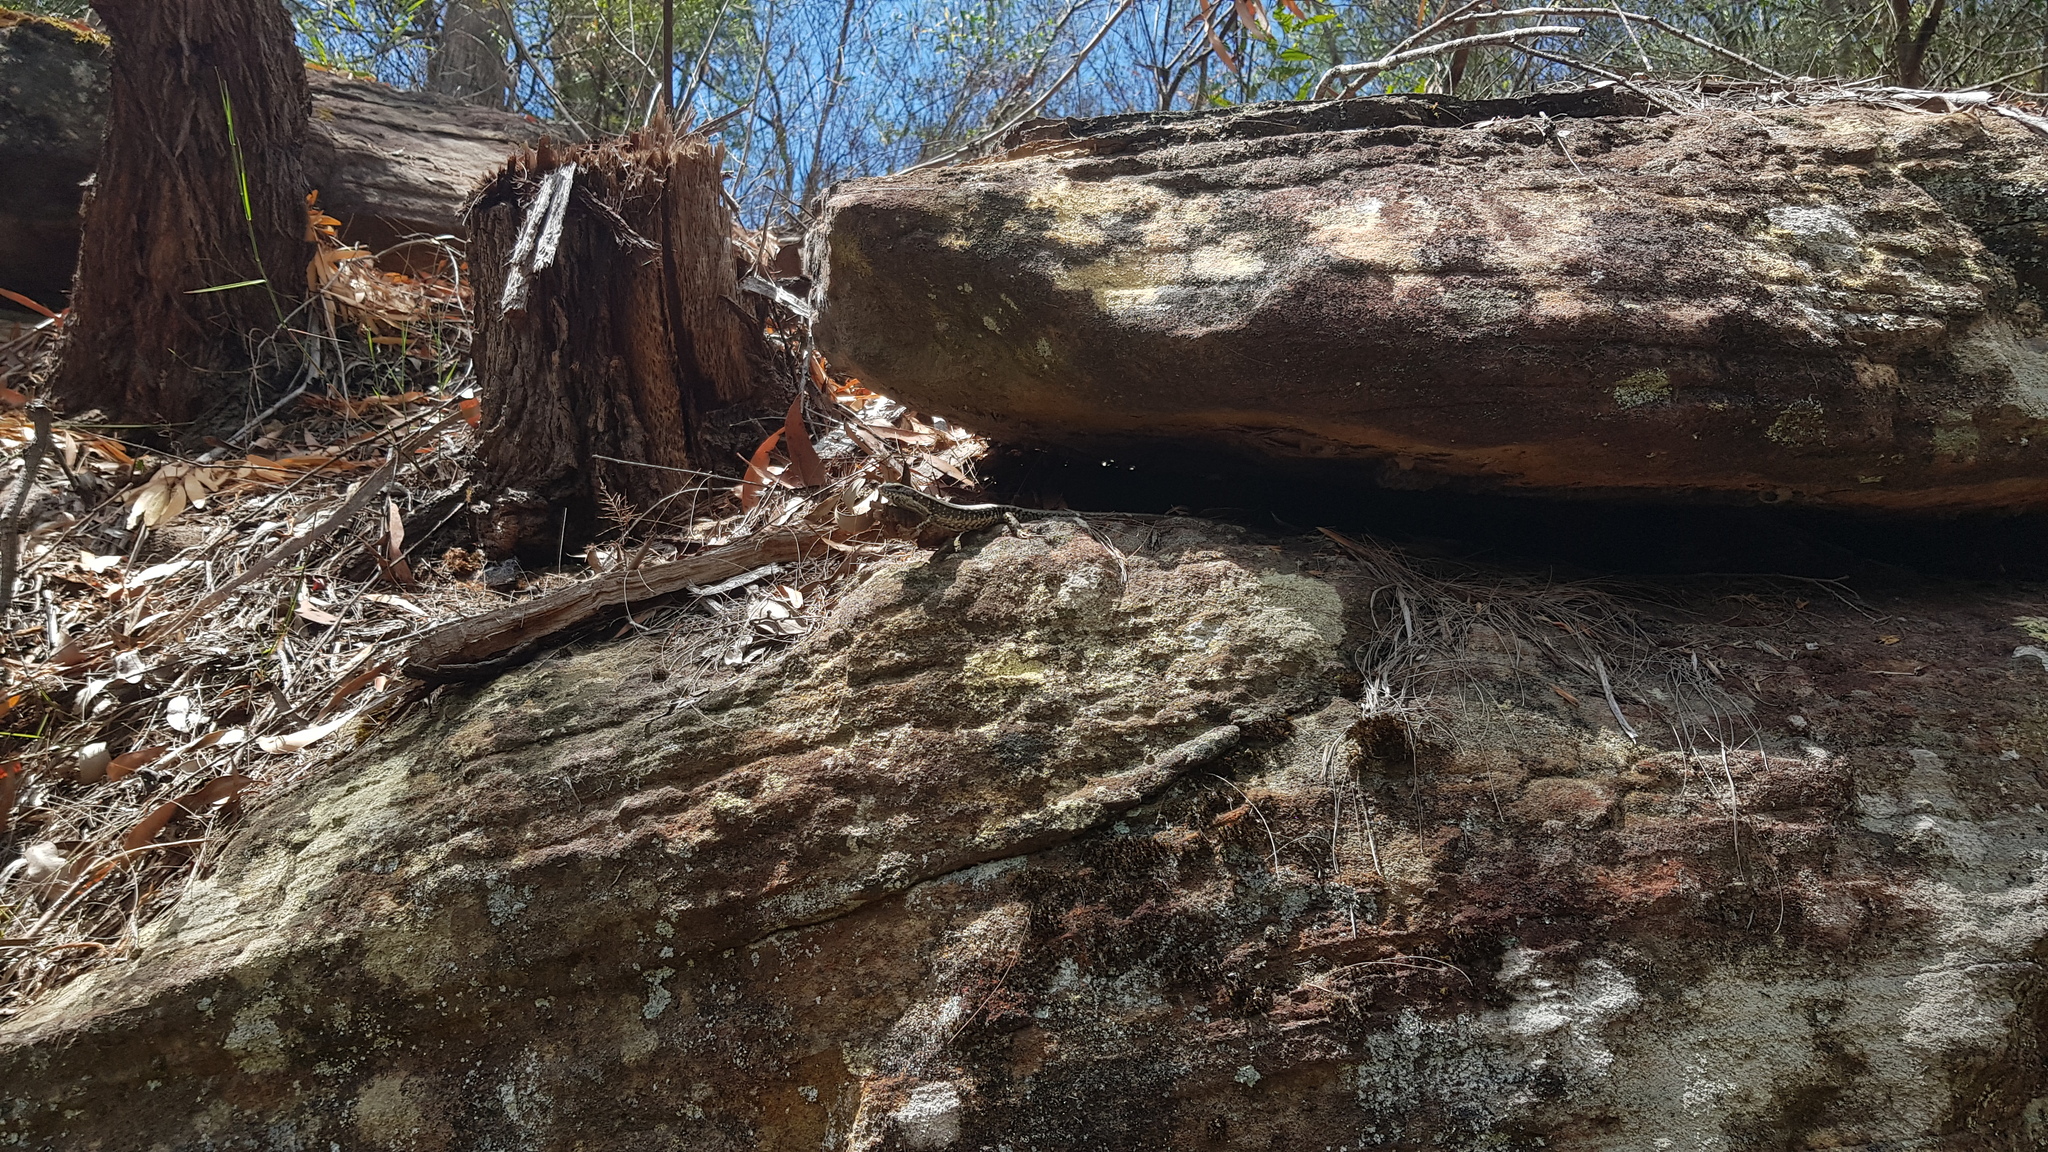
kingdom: Animalia
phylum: Chordata
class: Squamata
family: Scincidae
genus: Eulamprus
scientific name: Eulamprus quoyii
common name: Eastern water skink
